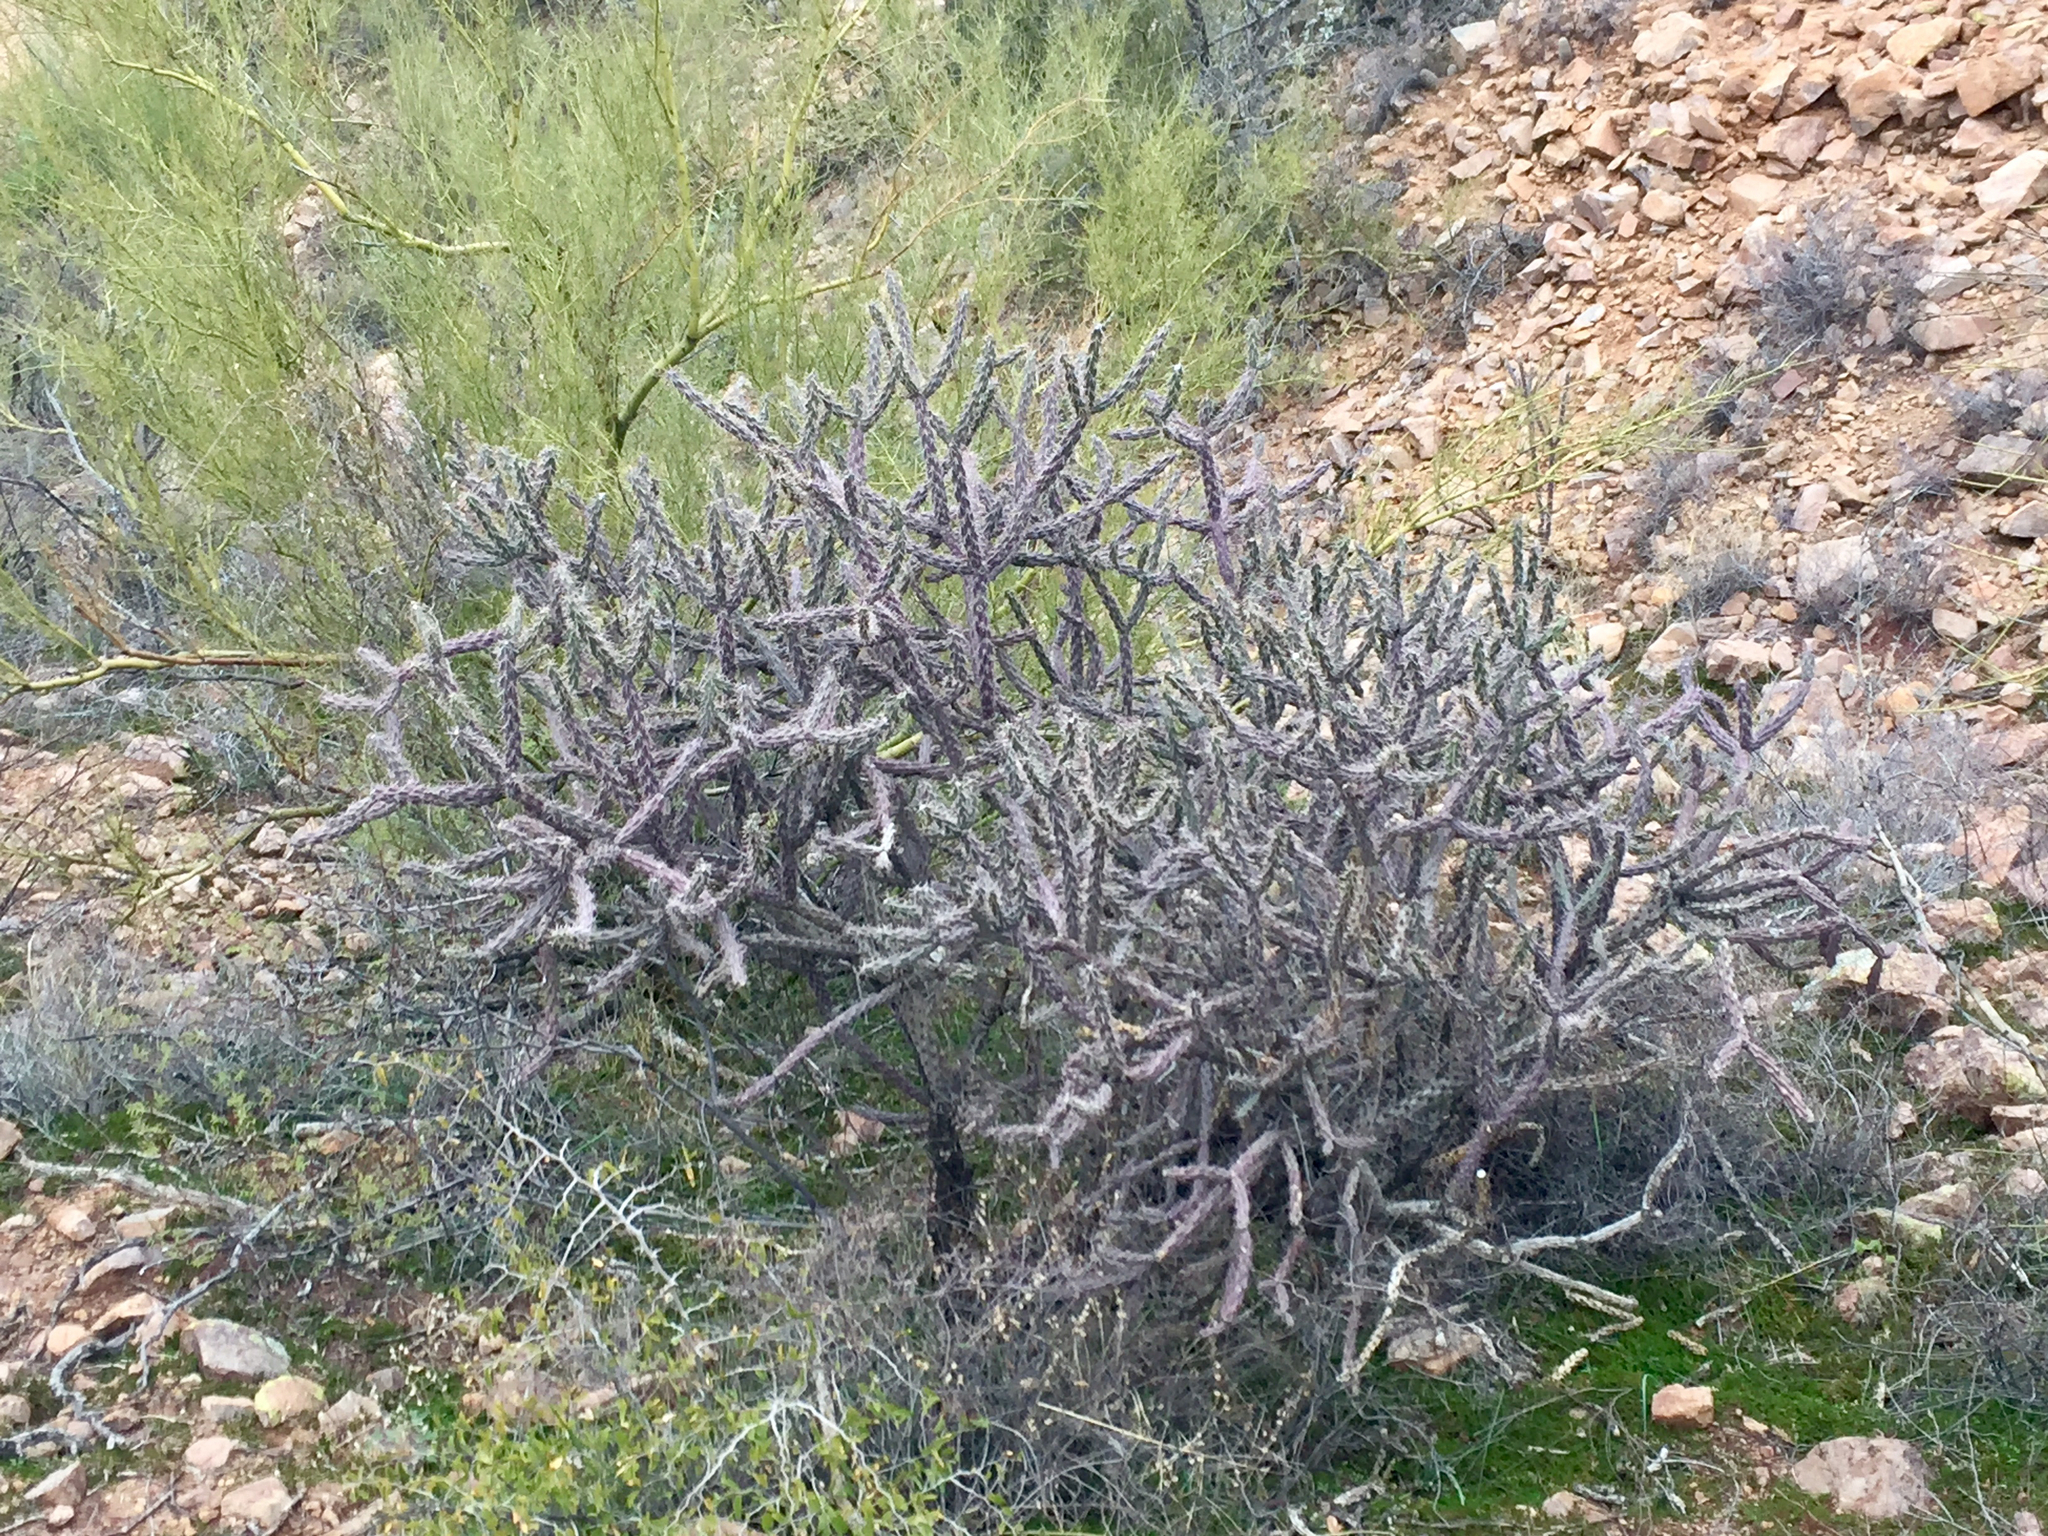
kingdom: Plantae
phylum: Tracheophyta
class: Magnoliopsida
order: Caryophyllales
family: Cactaceae
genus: Cylindropuntia
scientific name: Cylindropuntia imbricata
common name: Candelabrum cactus
